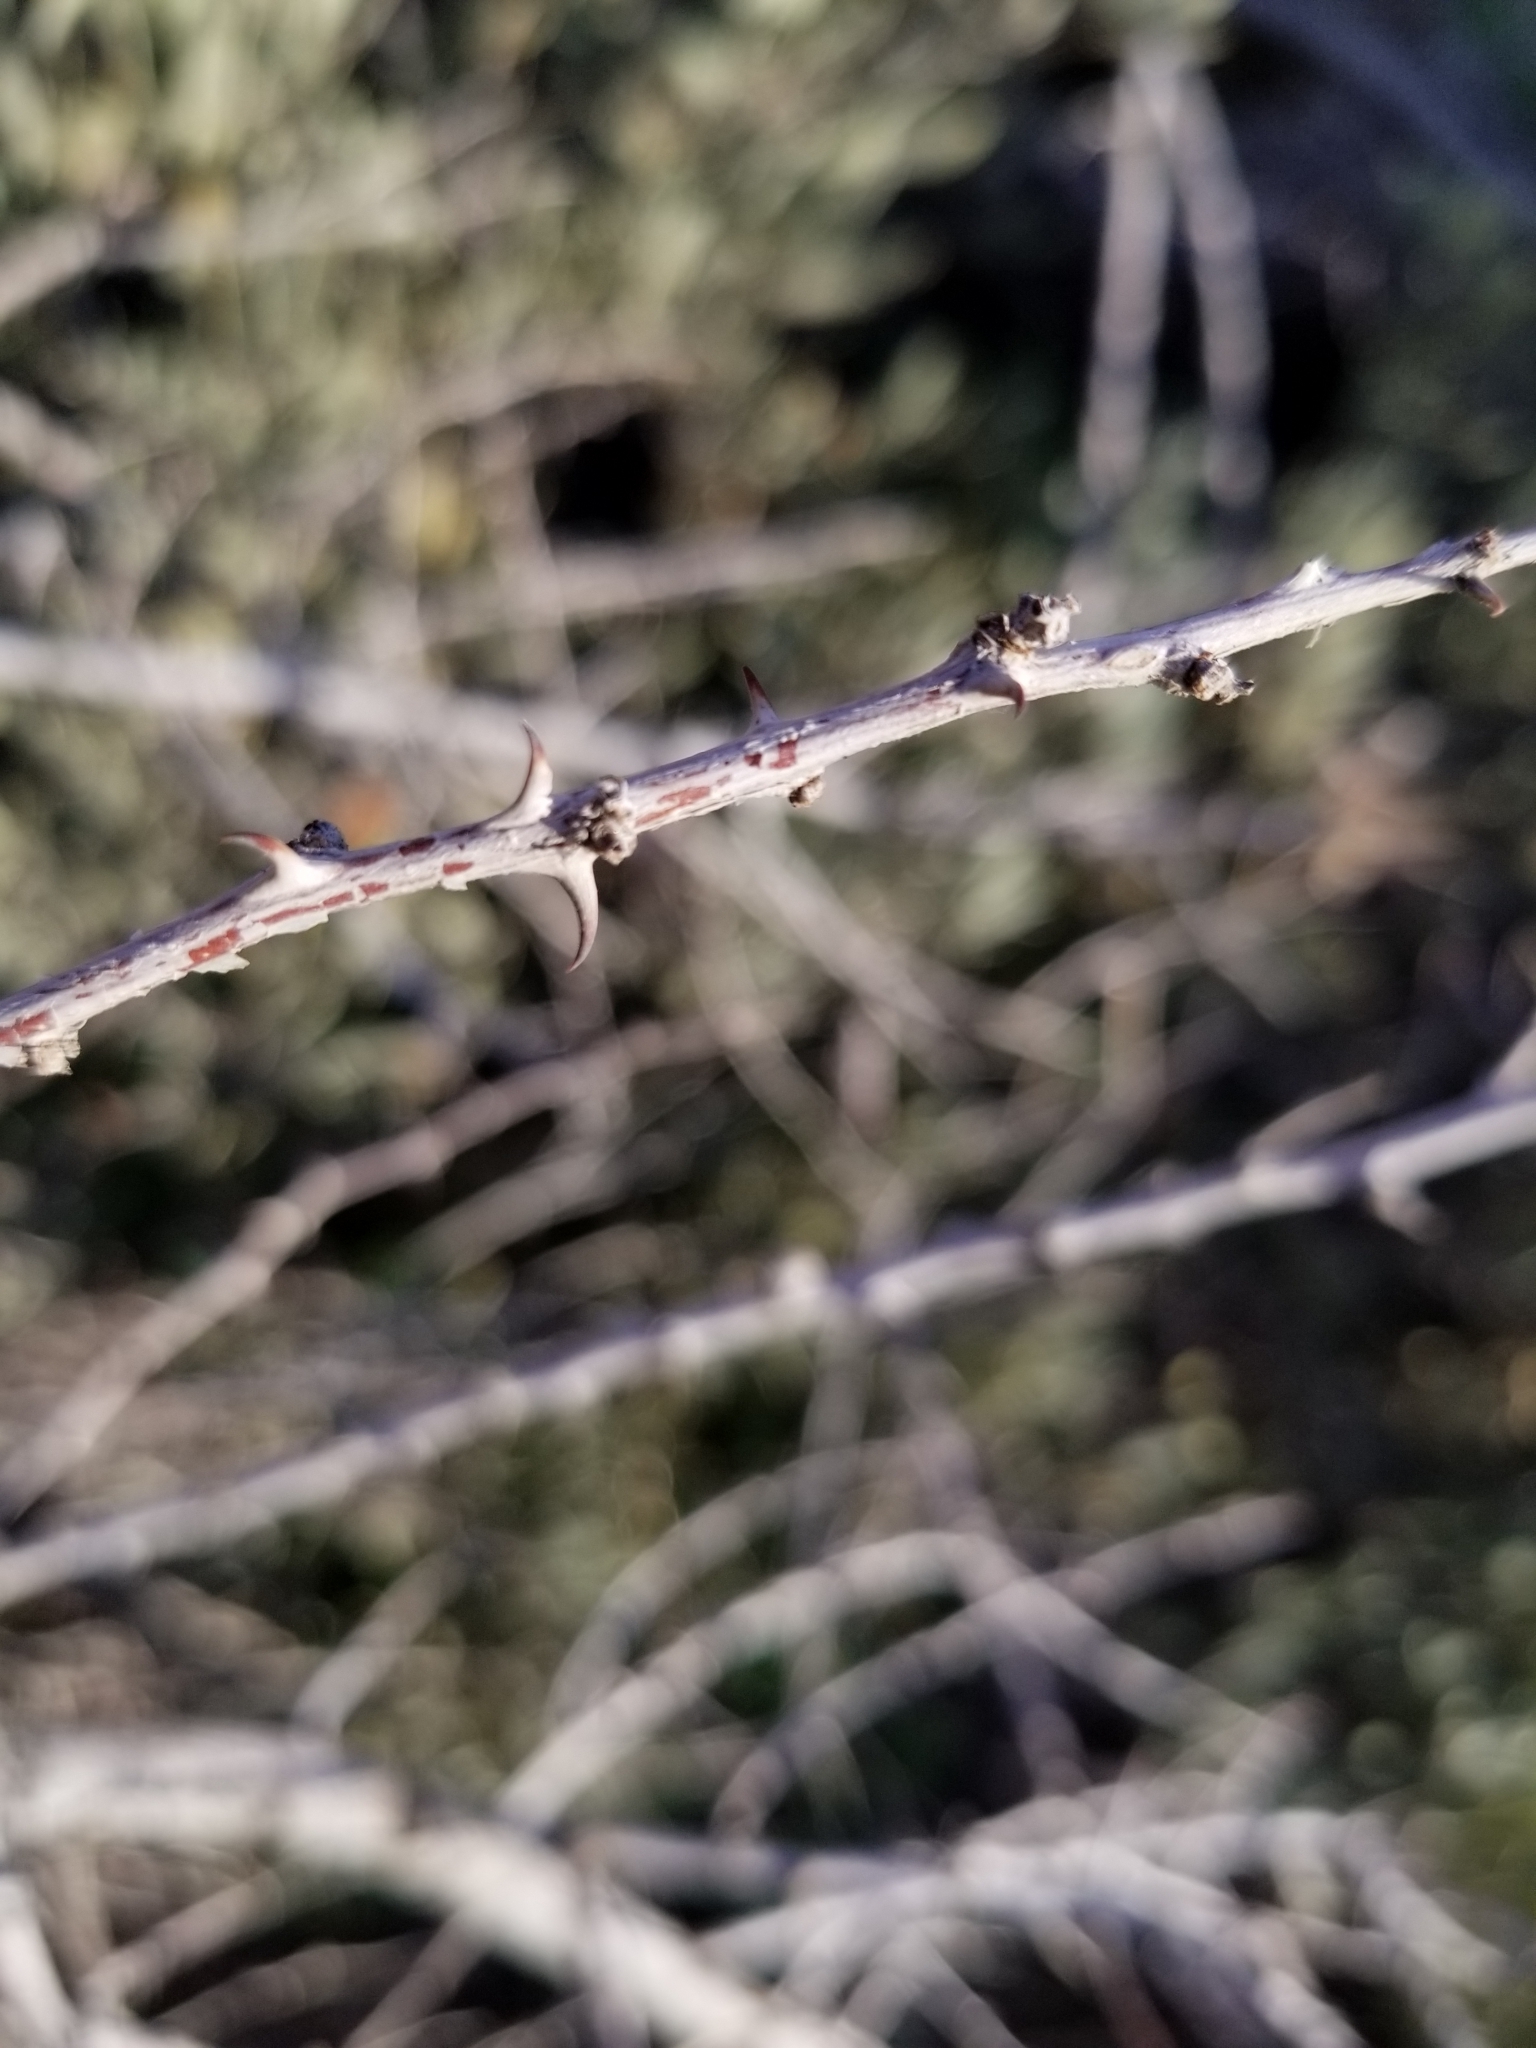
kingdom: Plantae
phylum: Tracheophyta
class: Magnoliopsida
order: Fabales
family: Fabaceae
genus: Senegalia
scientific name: Senegalia greggii
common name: Texas-mimosa
